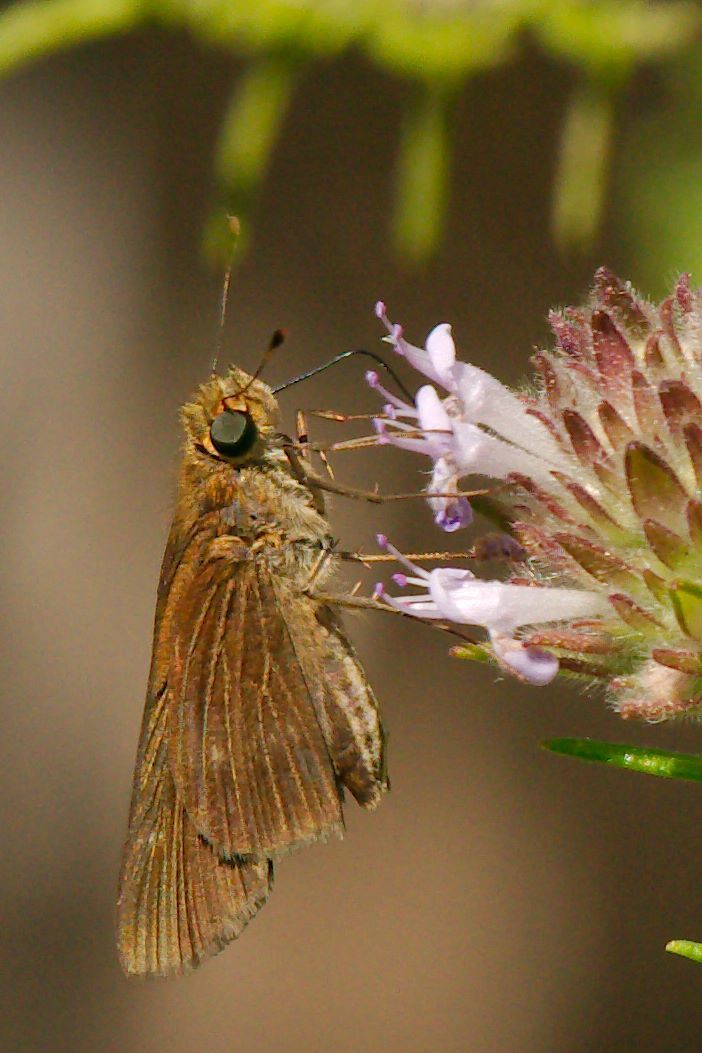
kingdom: Animalia
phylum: Arthropoda
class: Insecta
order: Lepidoptera
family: Hesperiidae
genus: Panoquina
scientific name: Panoquina ocola
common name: Ocola skipper
